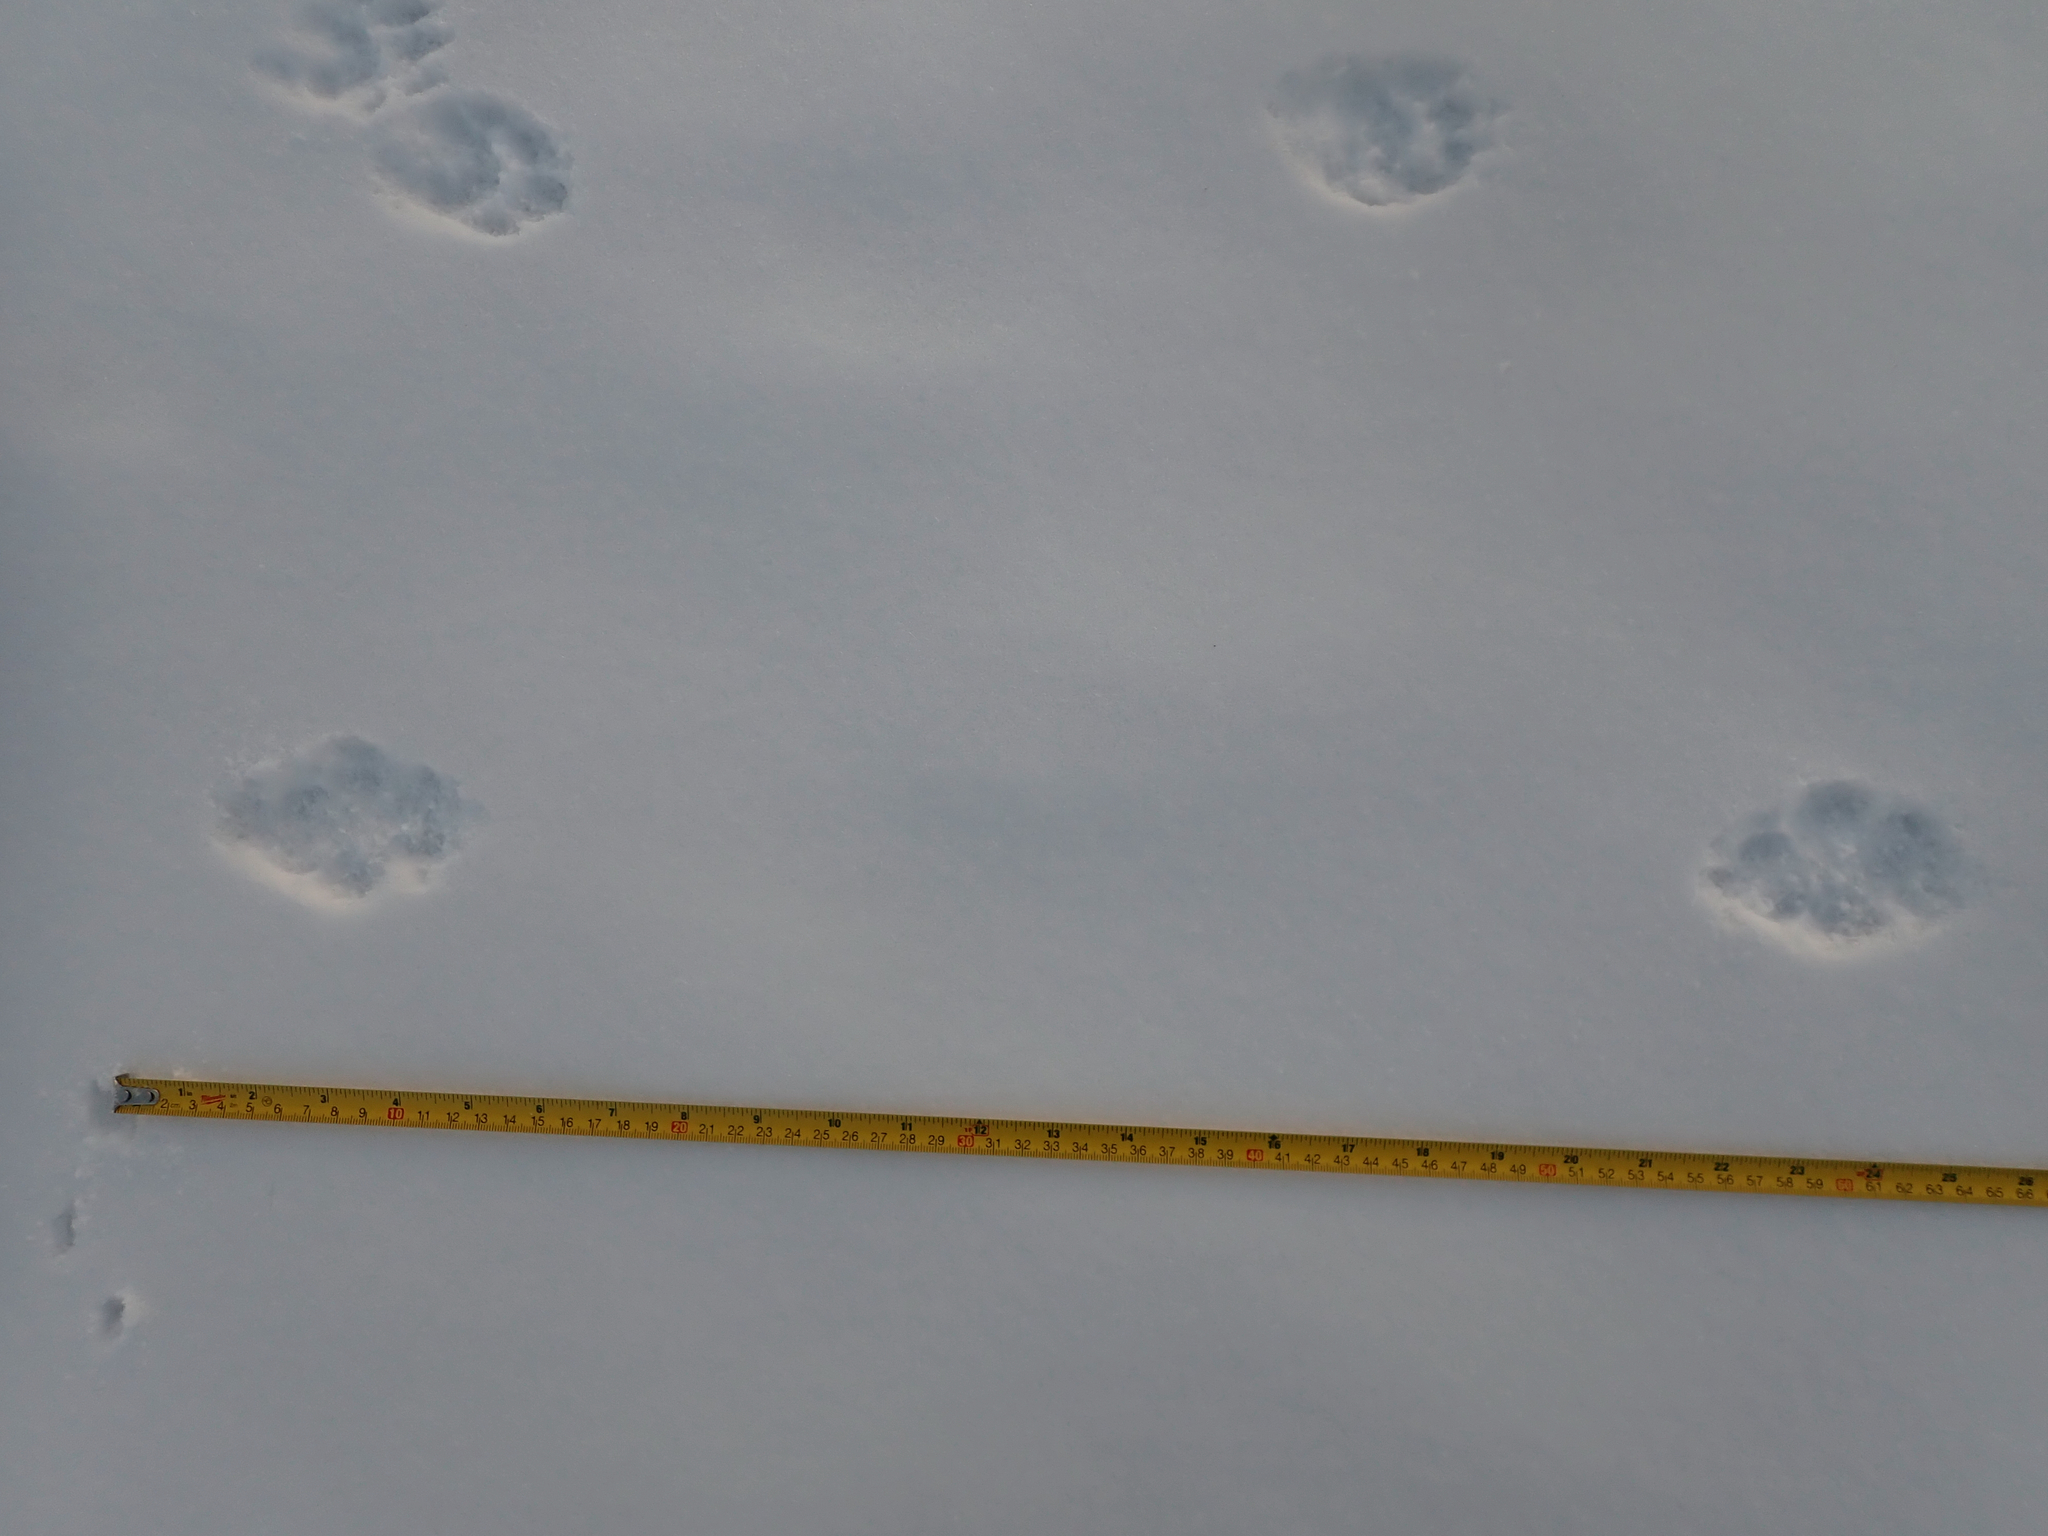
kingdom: Animalia
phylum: Chordata
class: Mammalia
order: Carnivora
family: Canidae
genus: Canis
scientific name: Canis latrans
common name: Coyote
